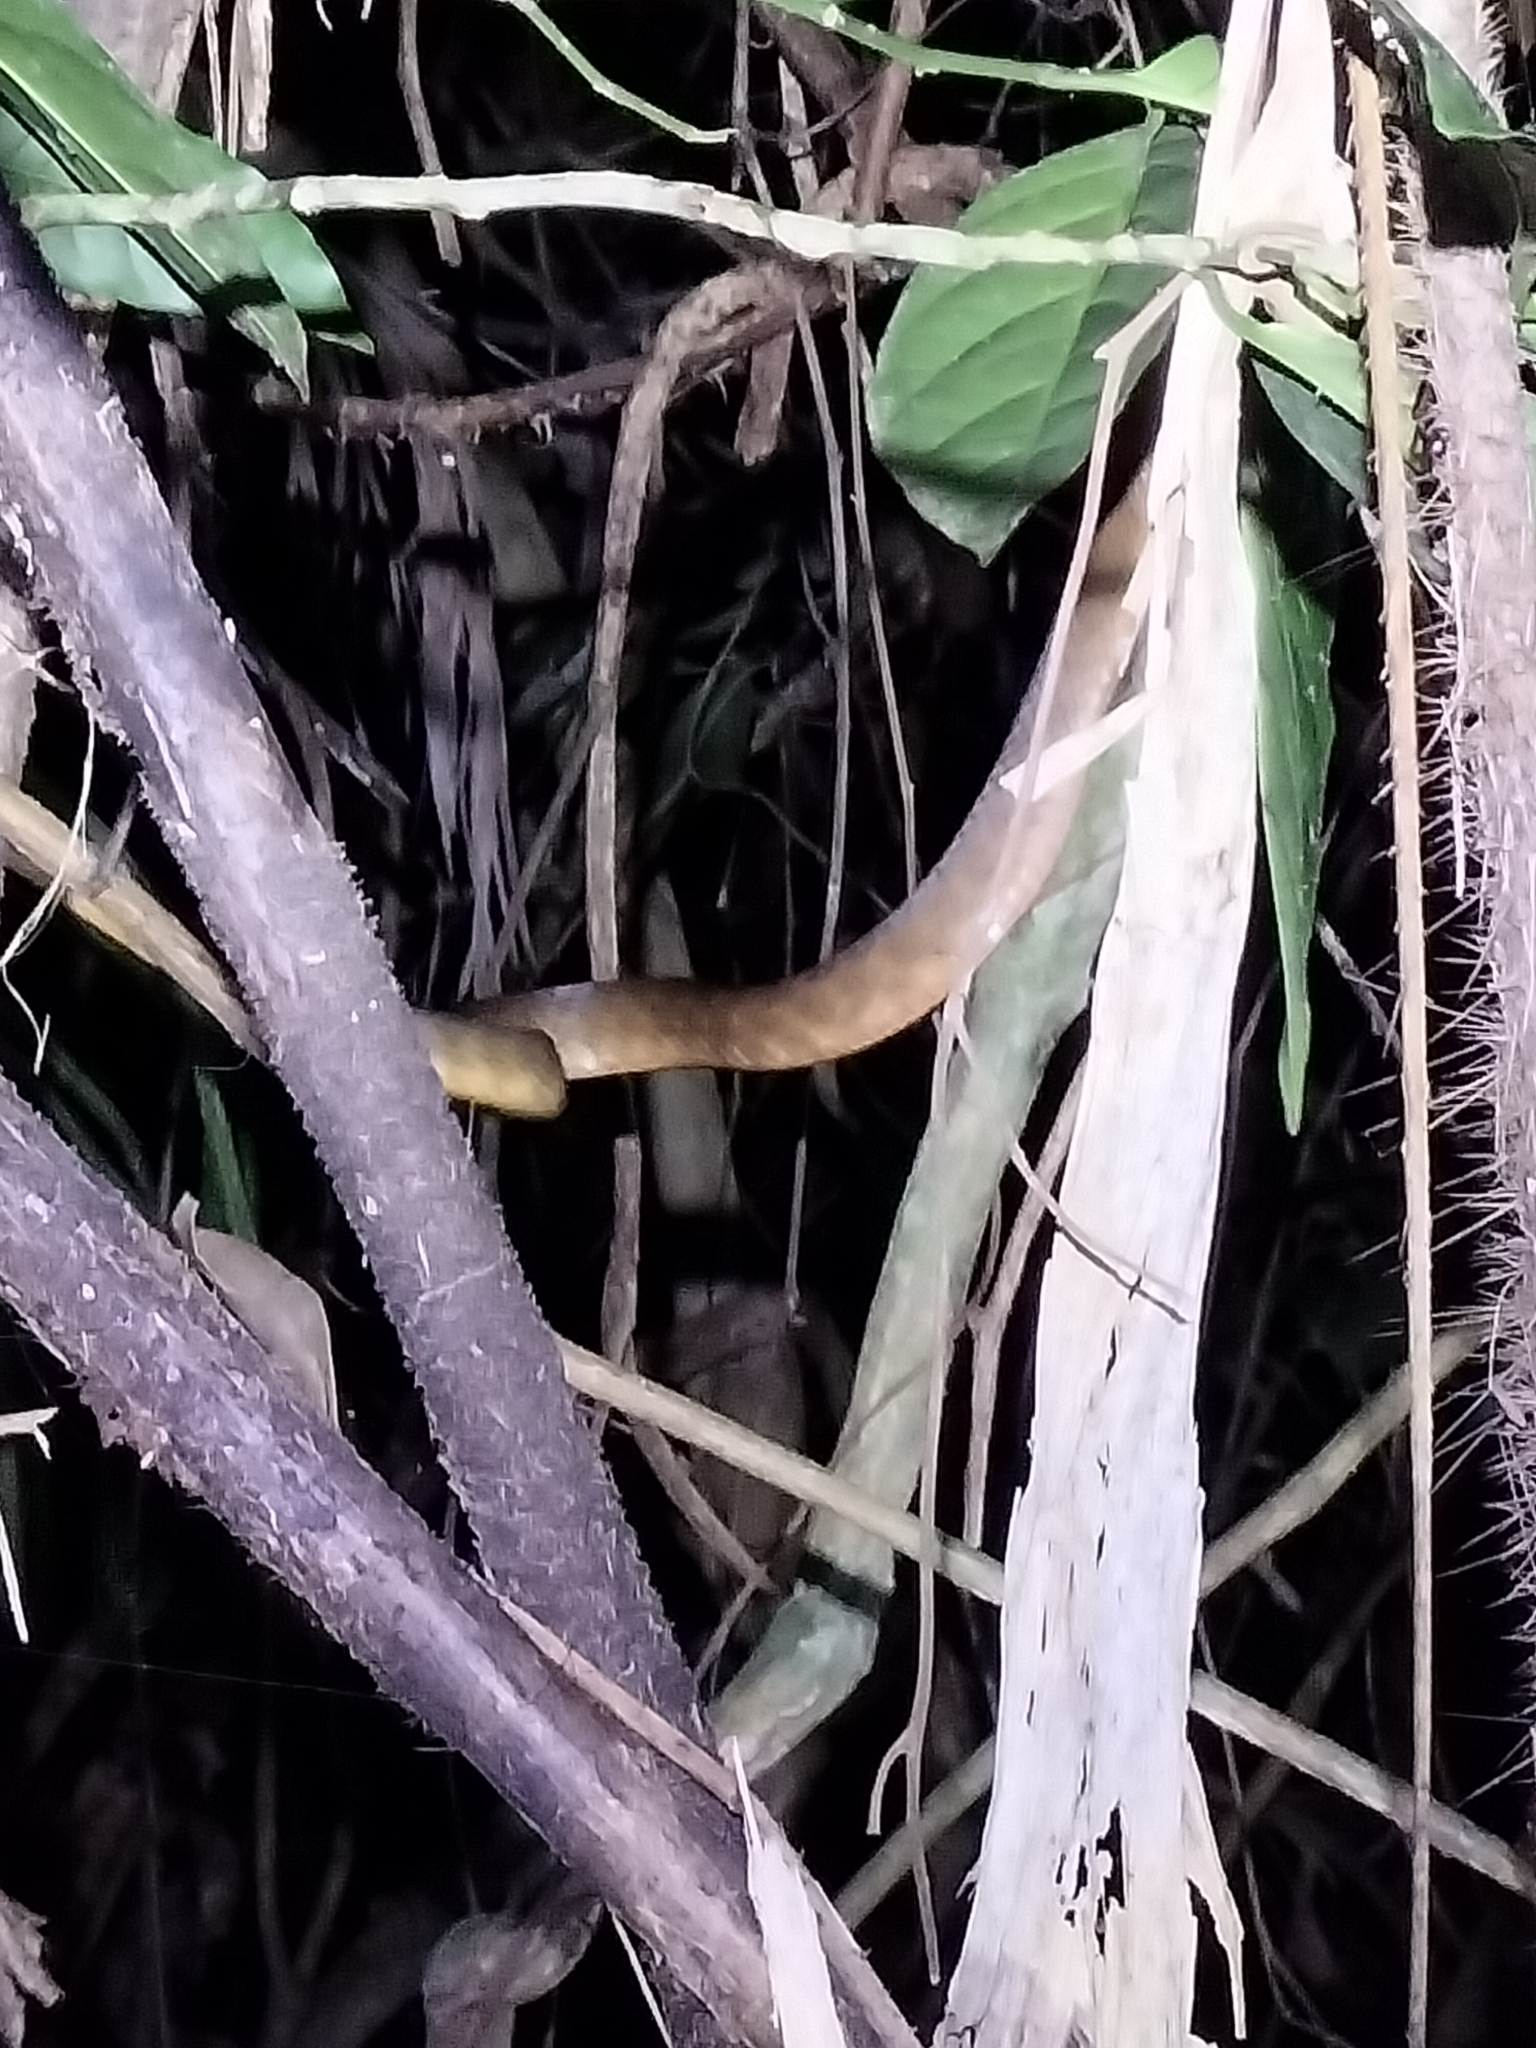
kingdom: Animalia
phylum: Chordata
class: Squamata
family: Colubridae
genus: Boiga
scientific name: Boiga irregularis
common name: Brown tree snake
